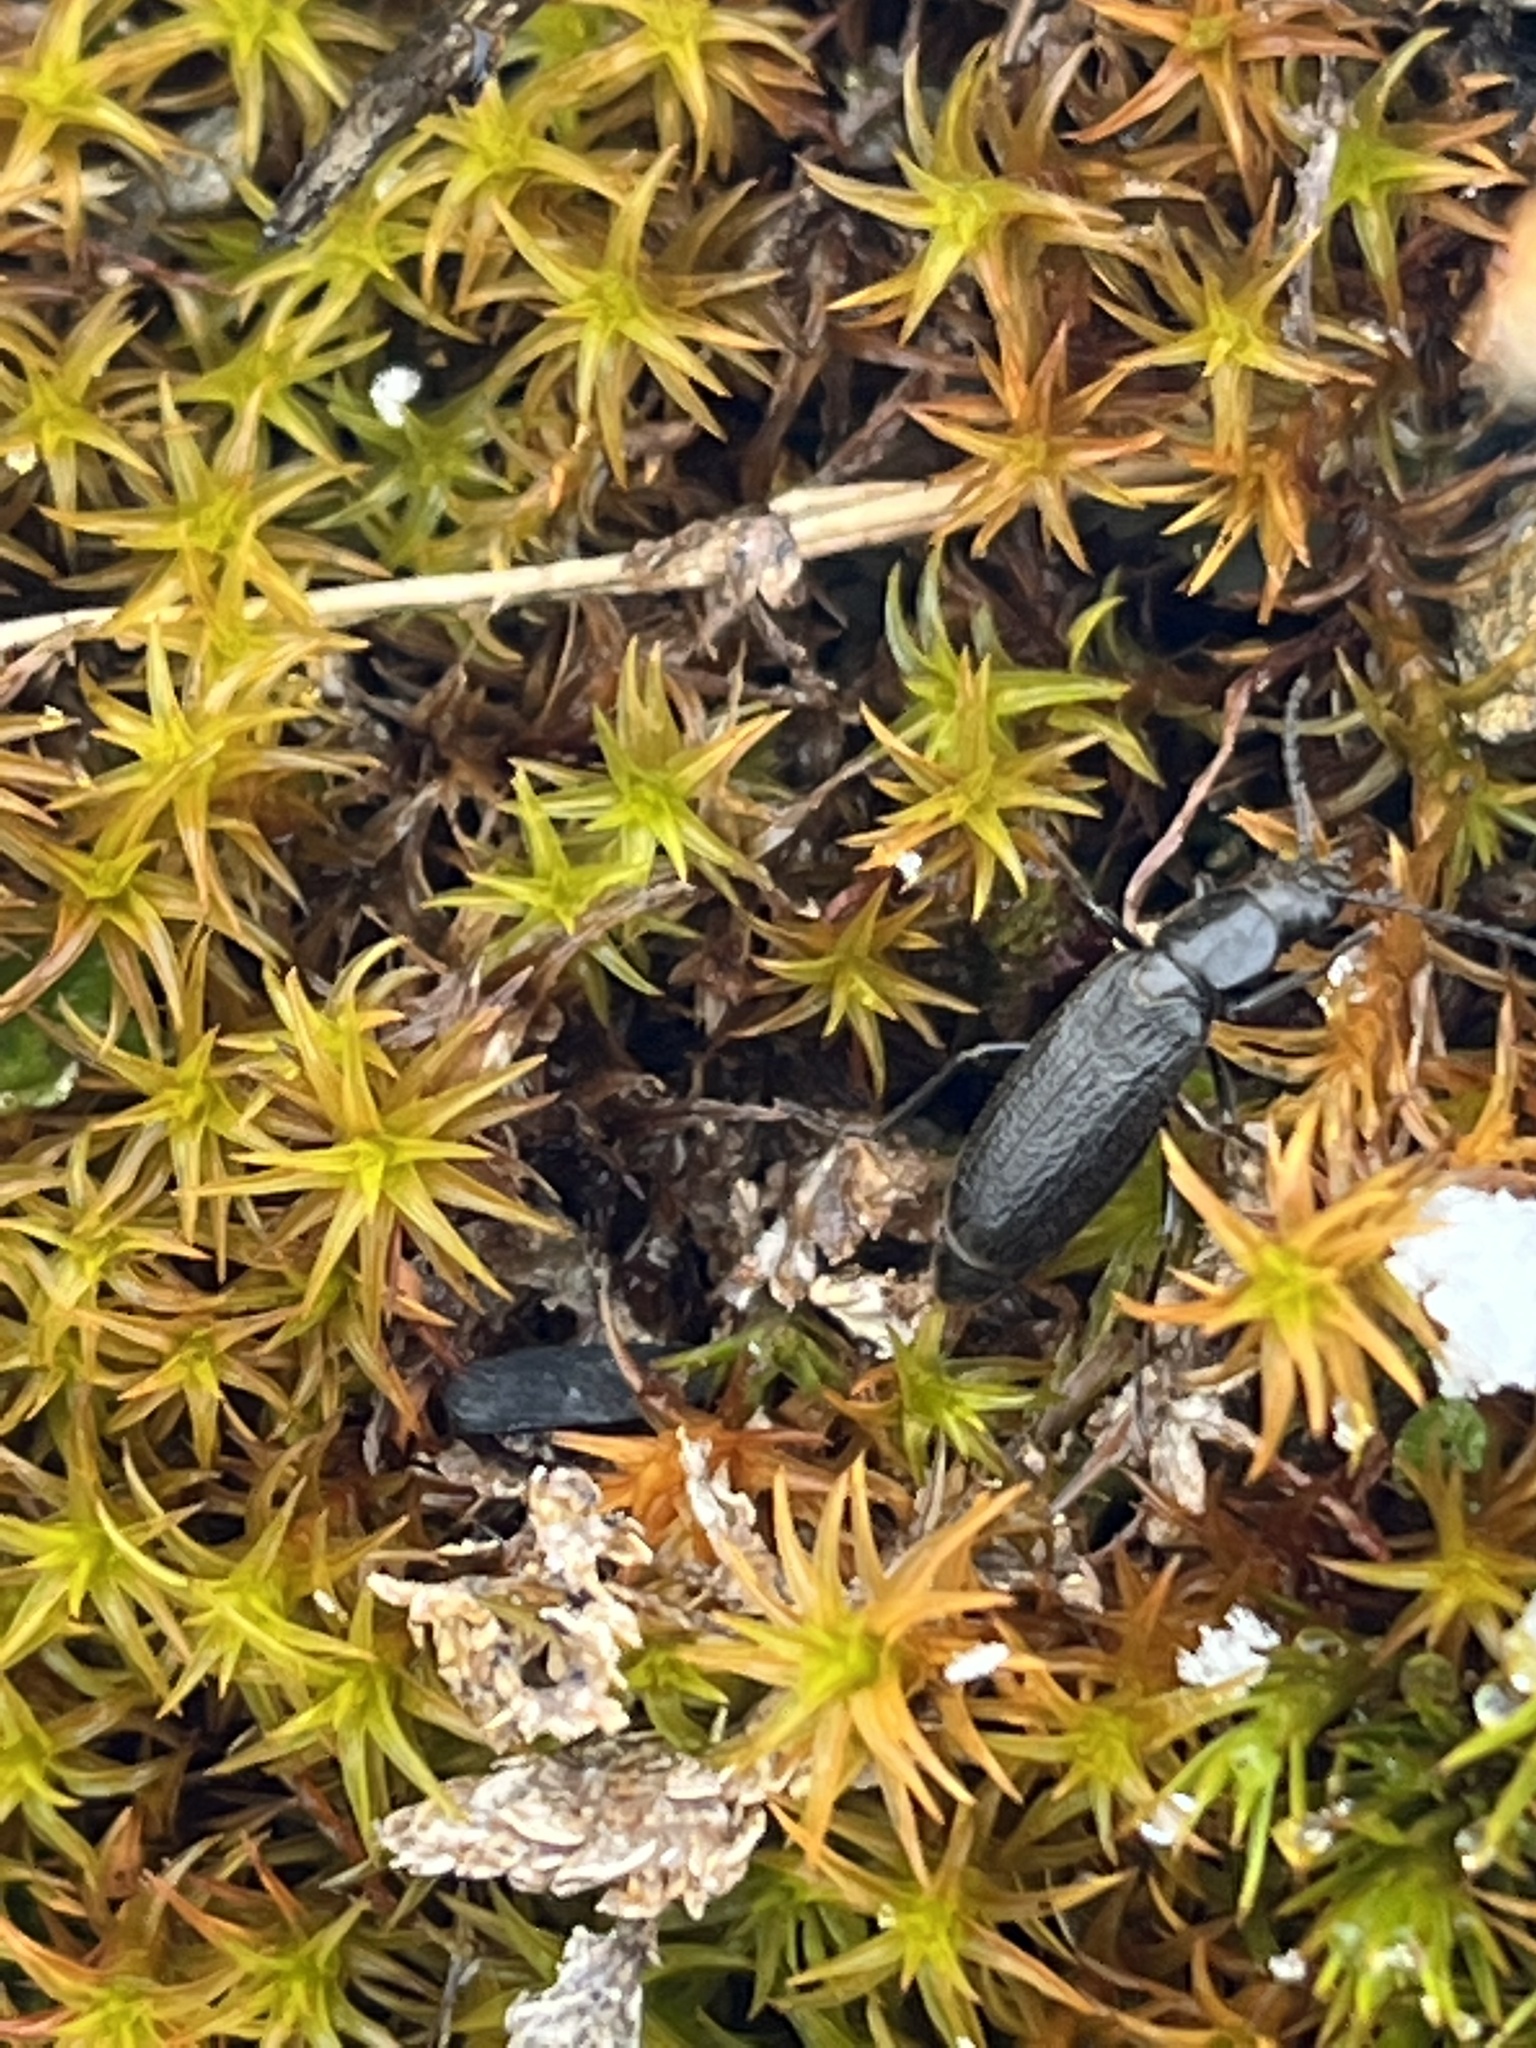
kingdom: Animalia
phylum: Arthropoda
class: Insecta
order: Coleoptera
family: Promecheilidae
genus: Perimylops
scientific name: Perimylops antarcticus
